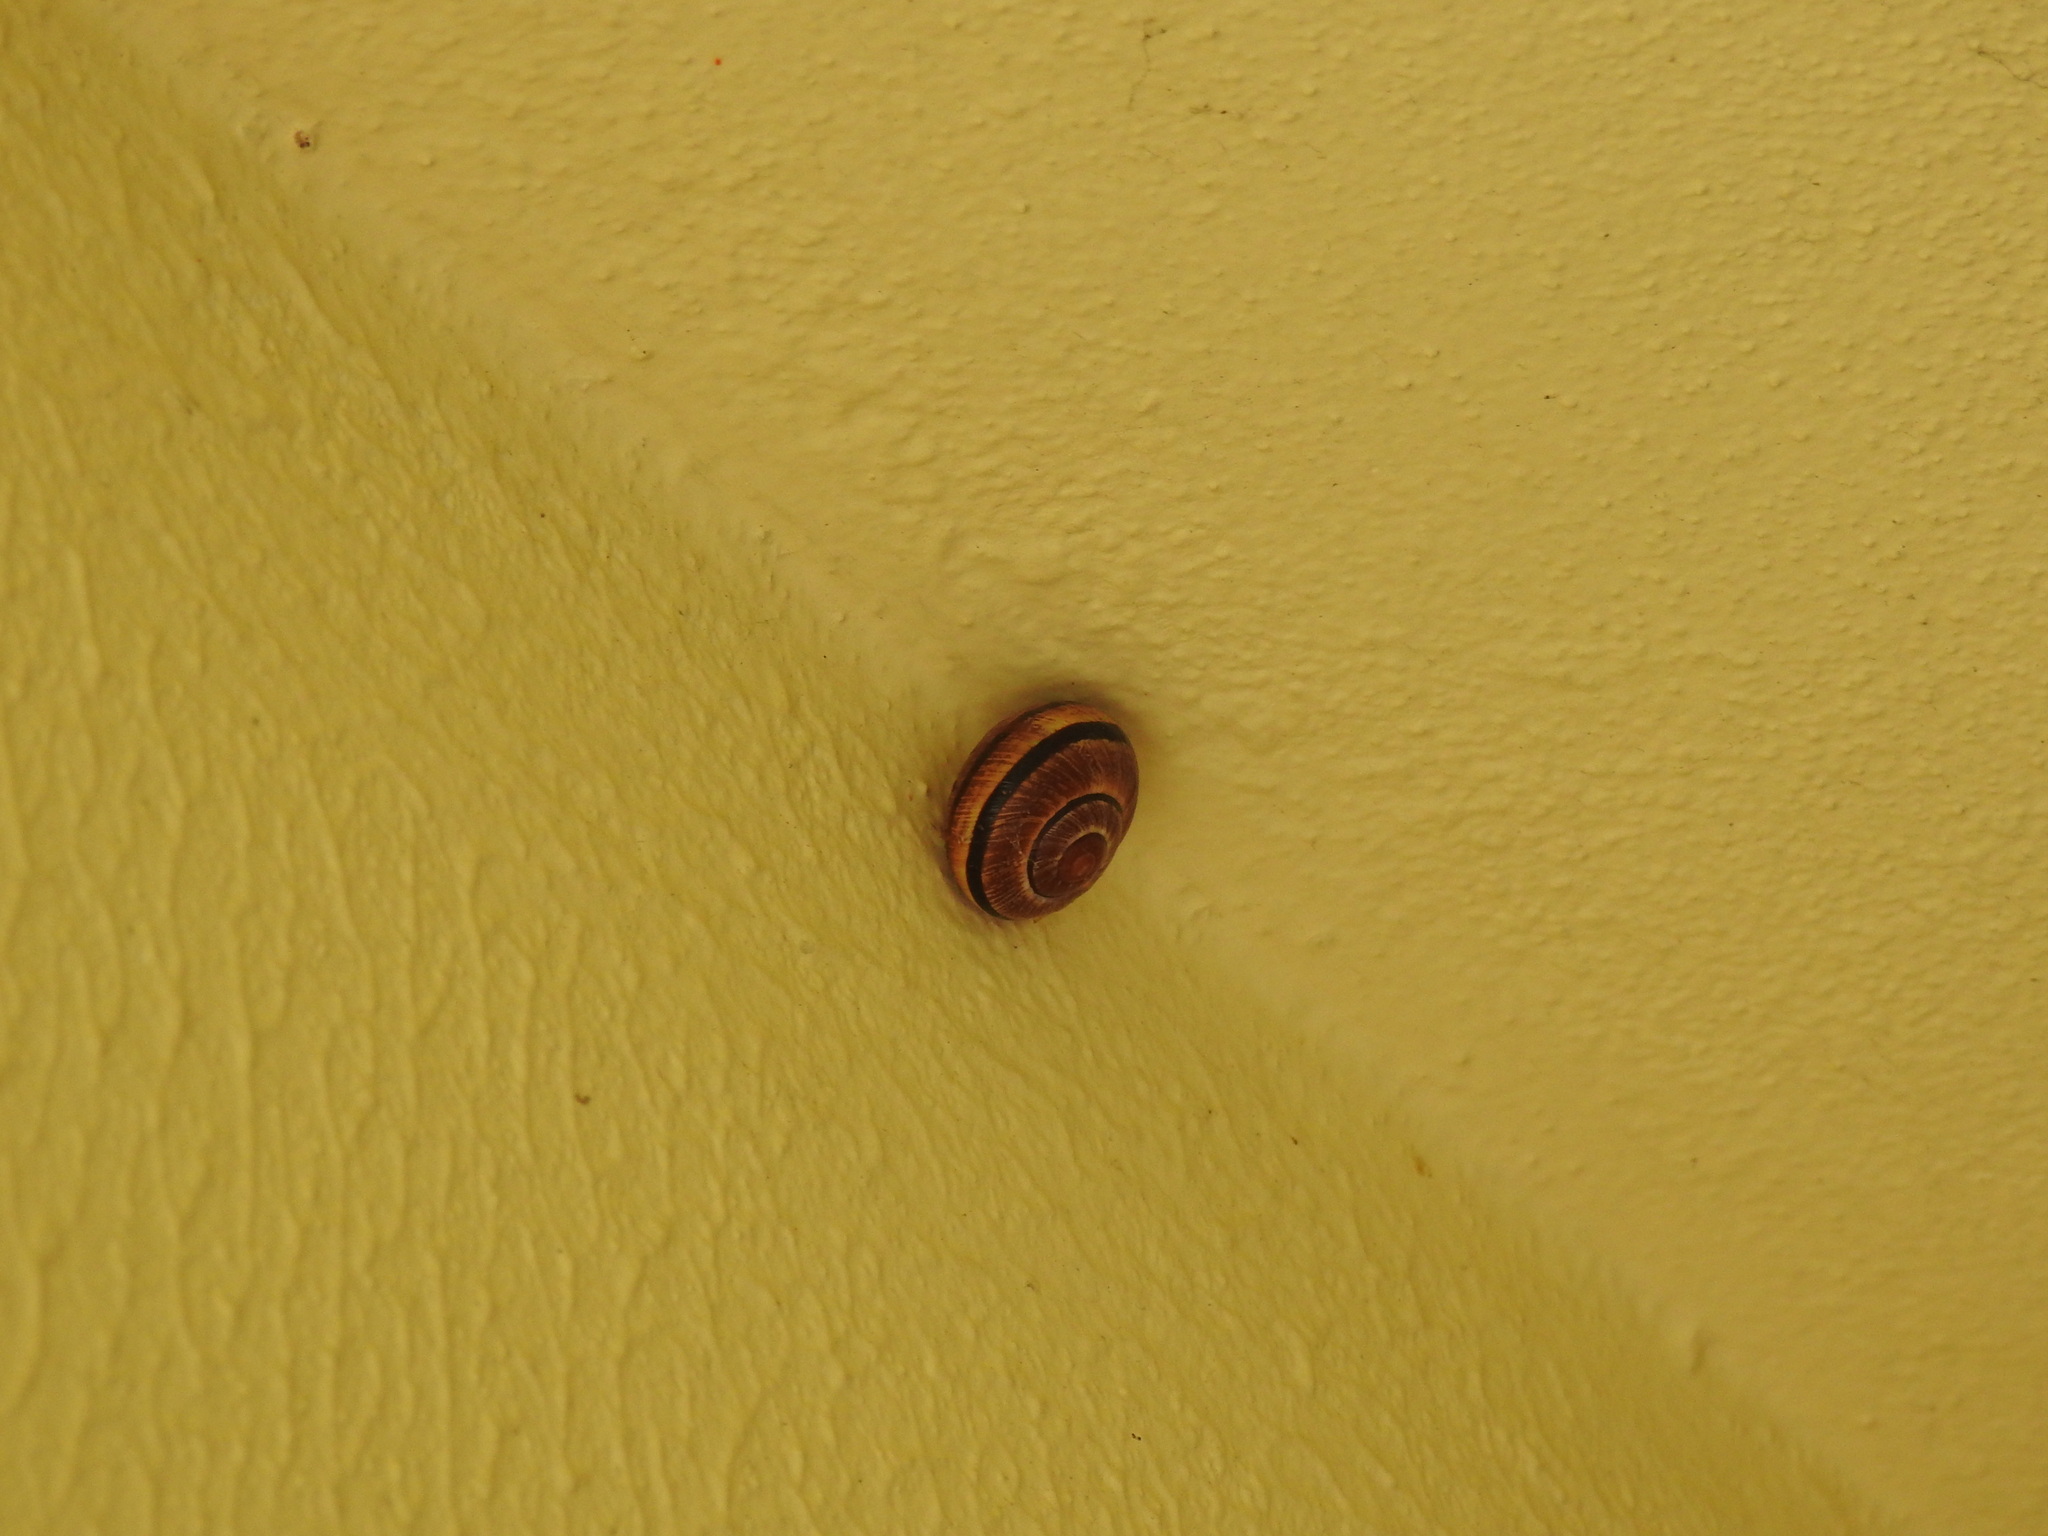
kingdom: Animalia
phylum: Mollusca
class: Gastropoda
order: Stylommatophora
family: Helicidae
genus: Cepaea
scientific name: Cepaea nemoralis
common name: Grovesnail
